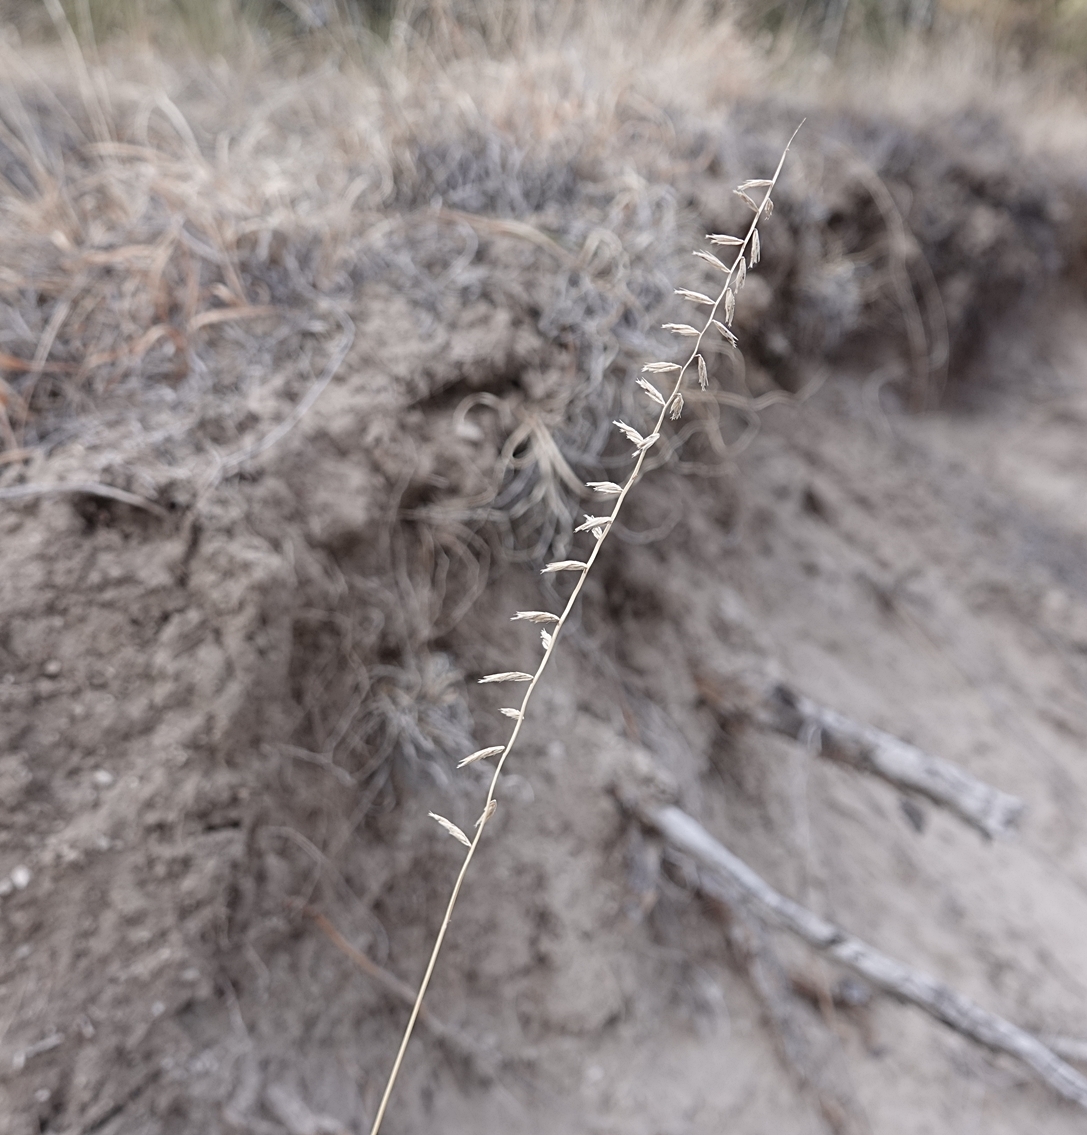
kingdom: Plantae
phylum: Tracheophyta
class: Liliopsida
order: Poales
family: Poaceae
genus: Bouteloua
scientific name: Bouteloua curtipendula
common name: Side-oats grama
